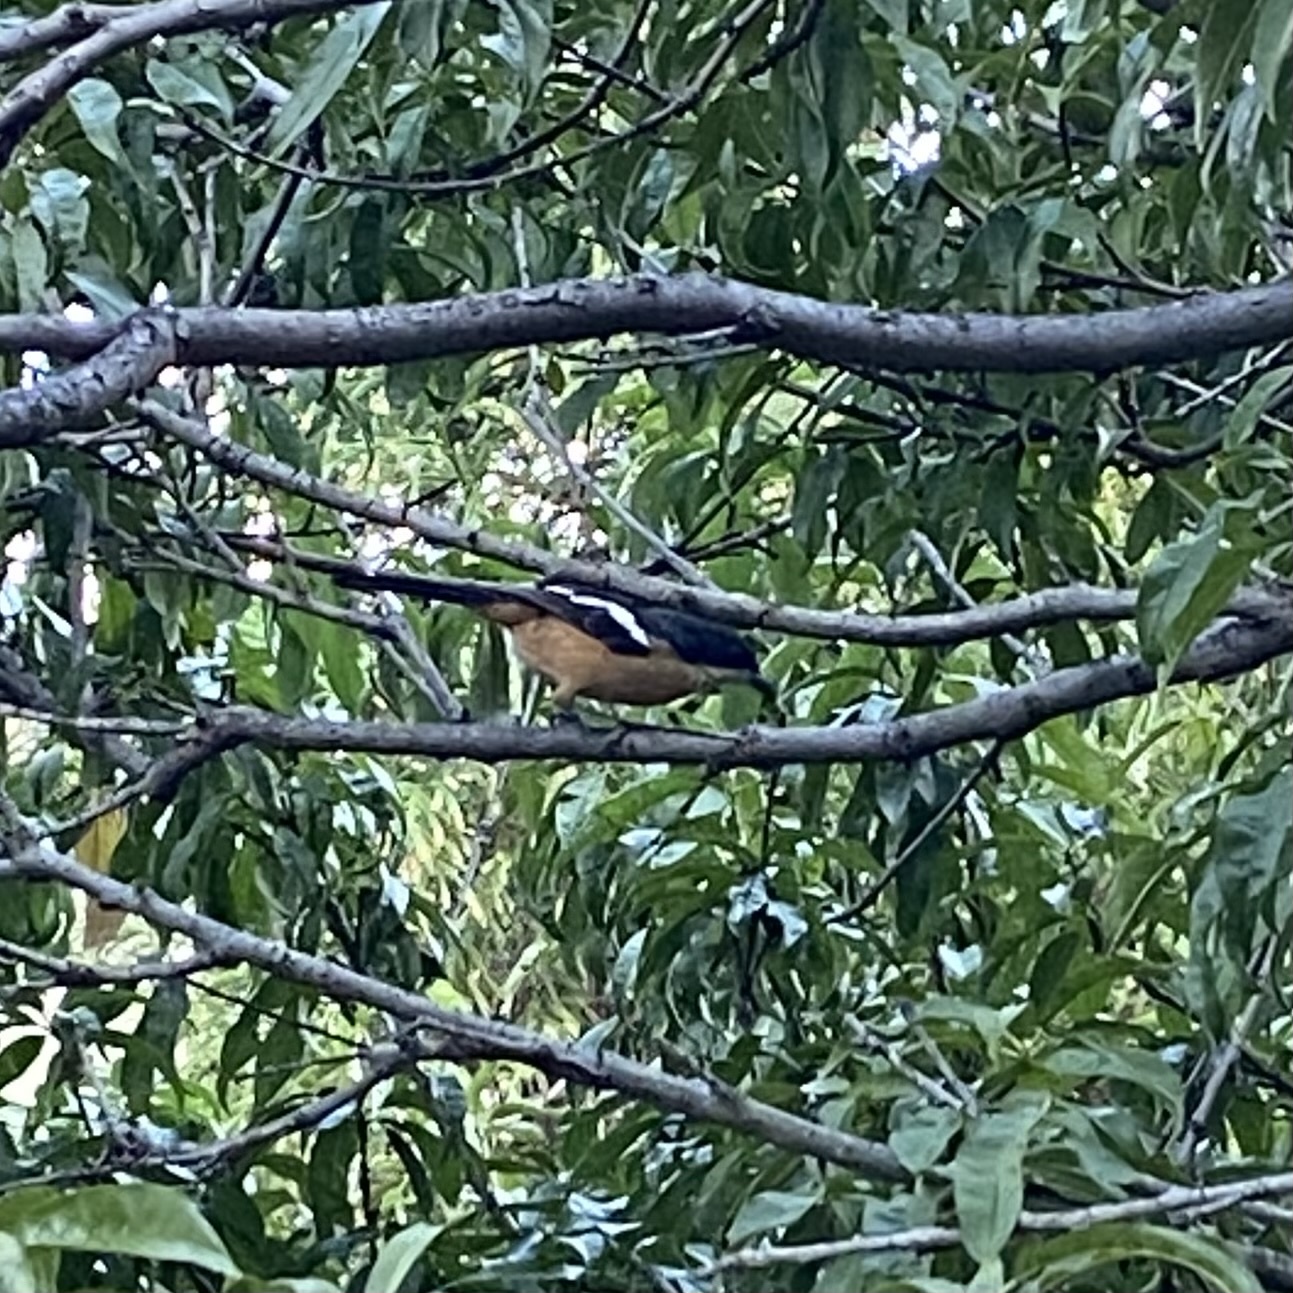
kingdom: Animalia
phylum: Chordata
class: Aves
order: Passeriformes
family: Malaconotidae
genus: Laniarius
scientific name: Laniarius ferrugineus
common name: Southern boubou
